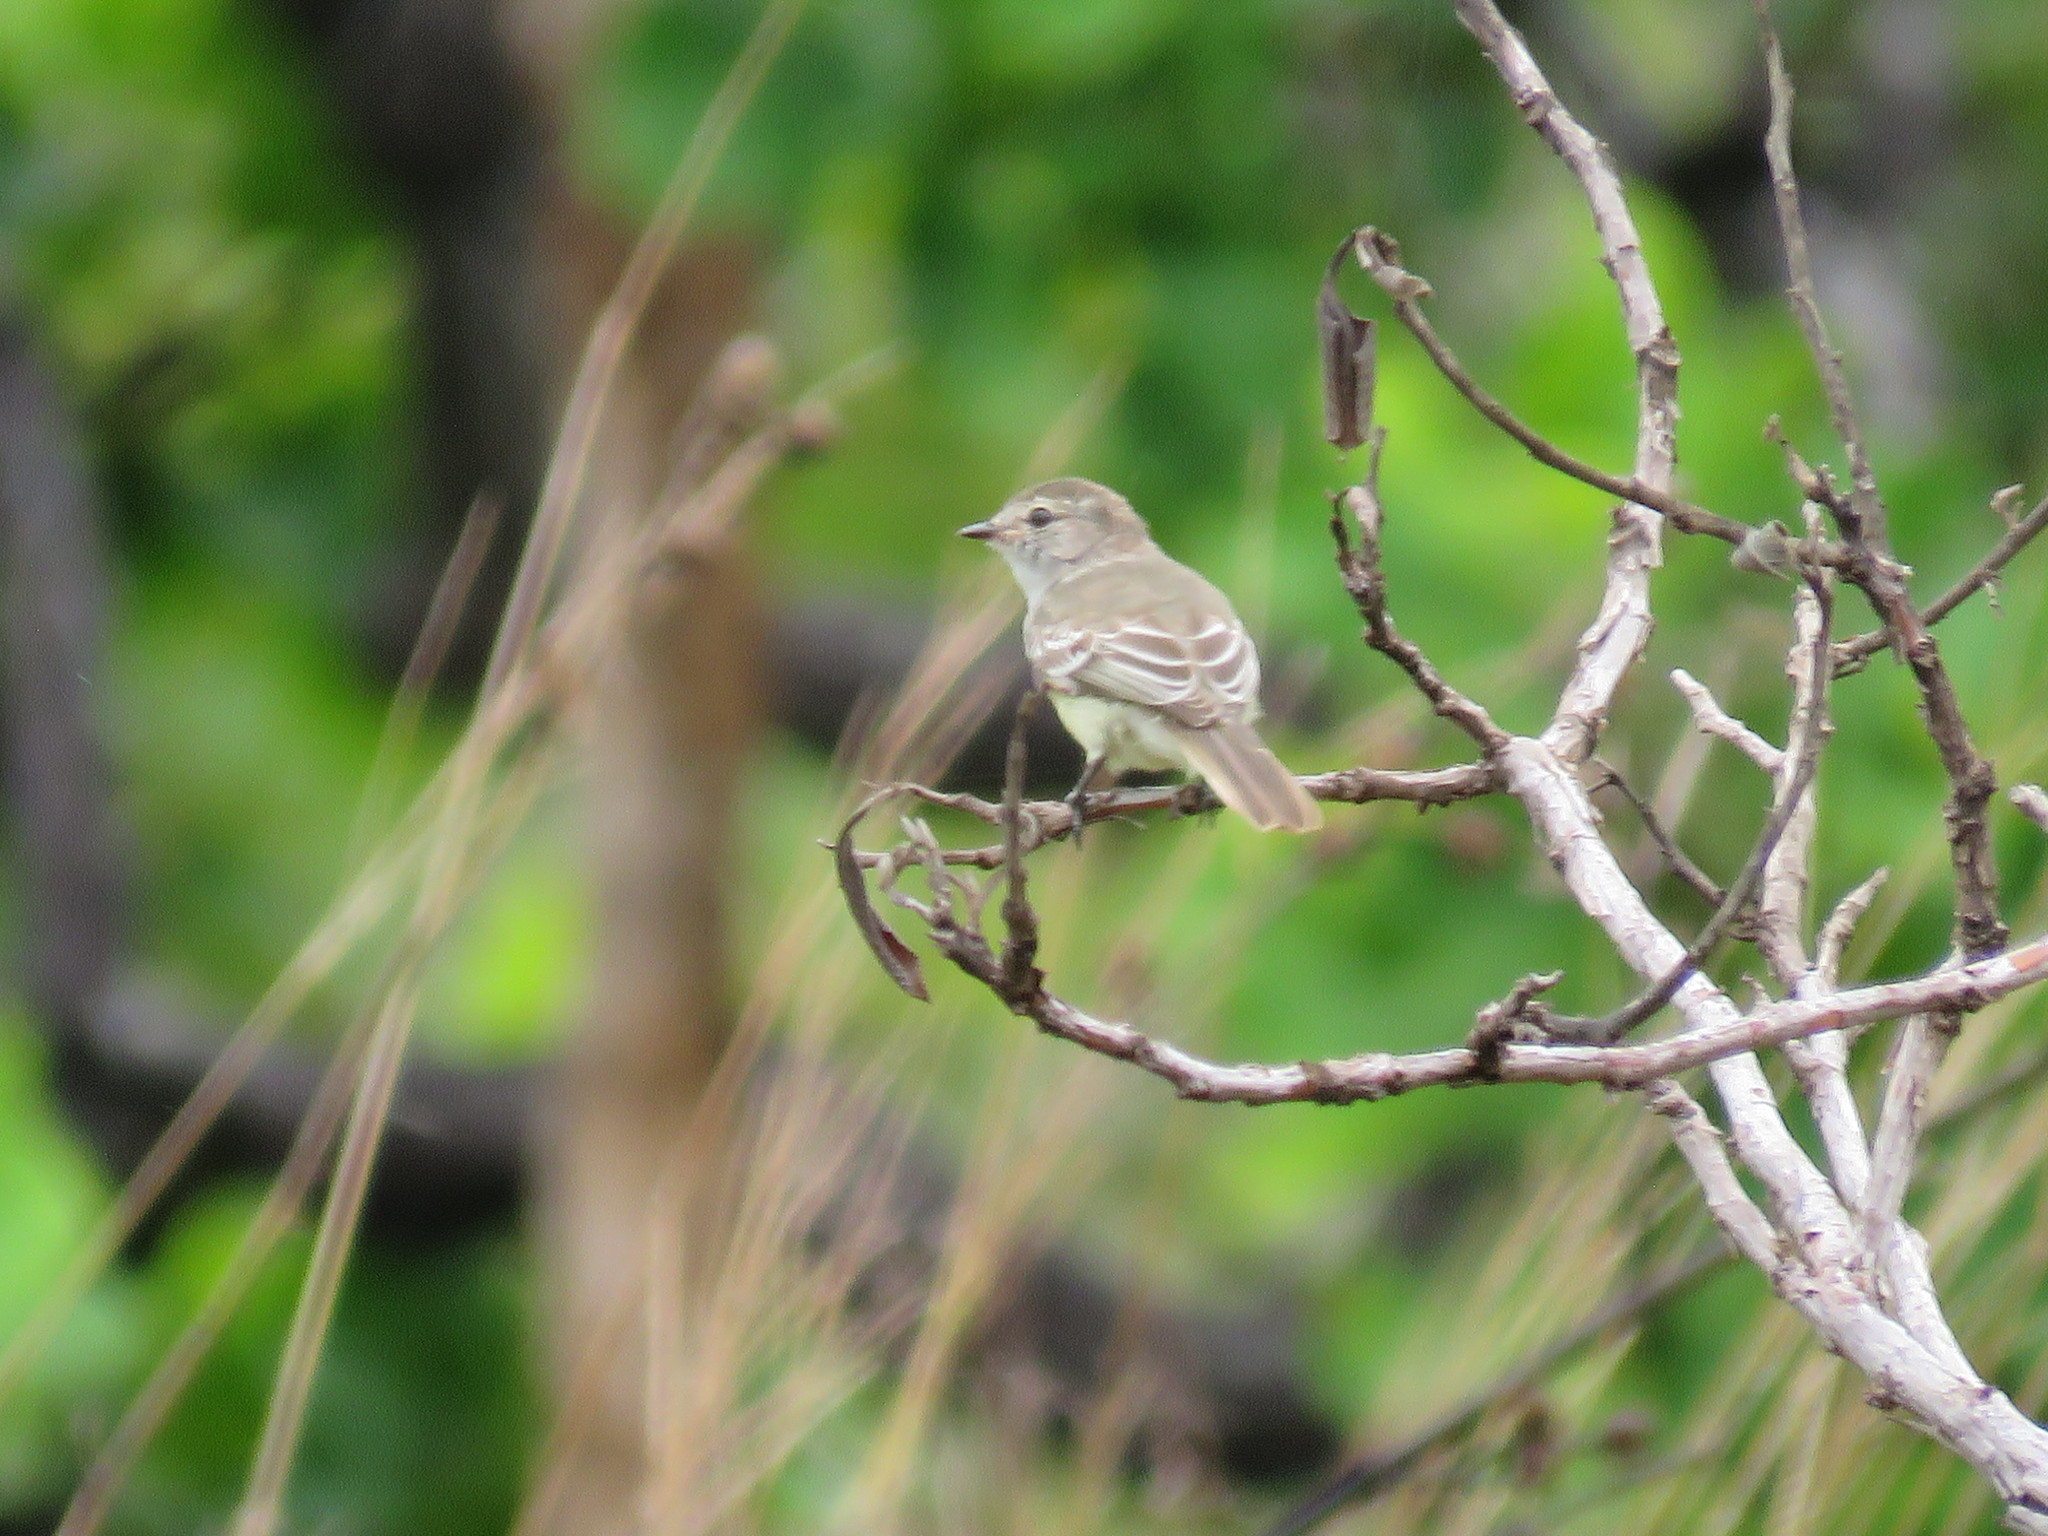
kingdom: Animalia
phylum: Chordata
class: Aves
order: Passeriformes
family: Tyrannidae
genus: Camptostoma
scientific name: Camptostoma obsoletum
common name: Southern beardless-tyrannulet
